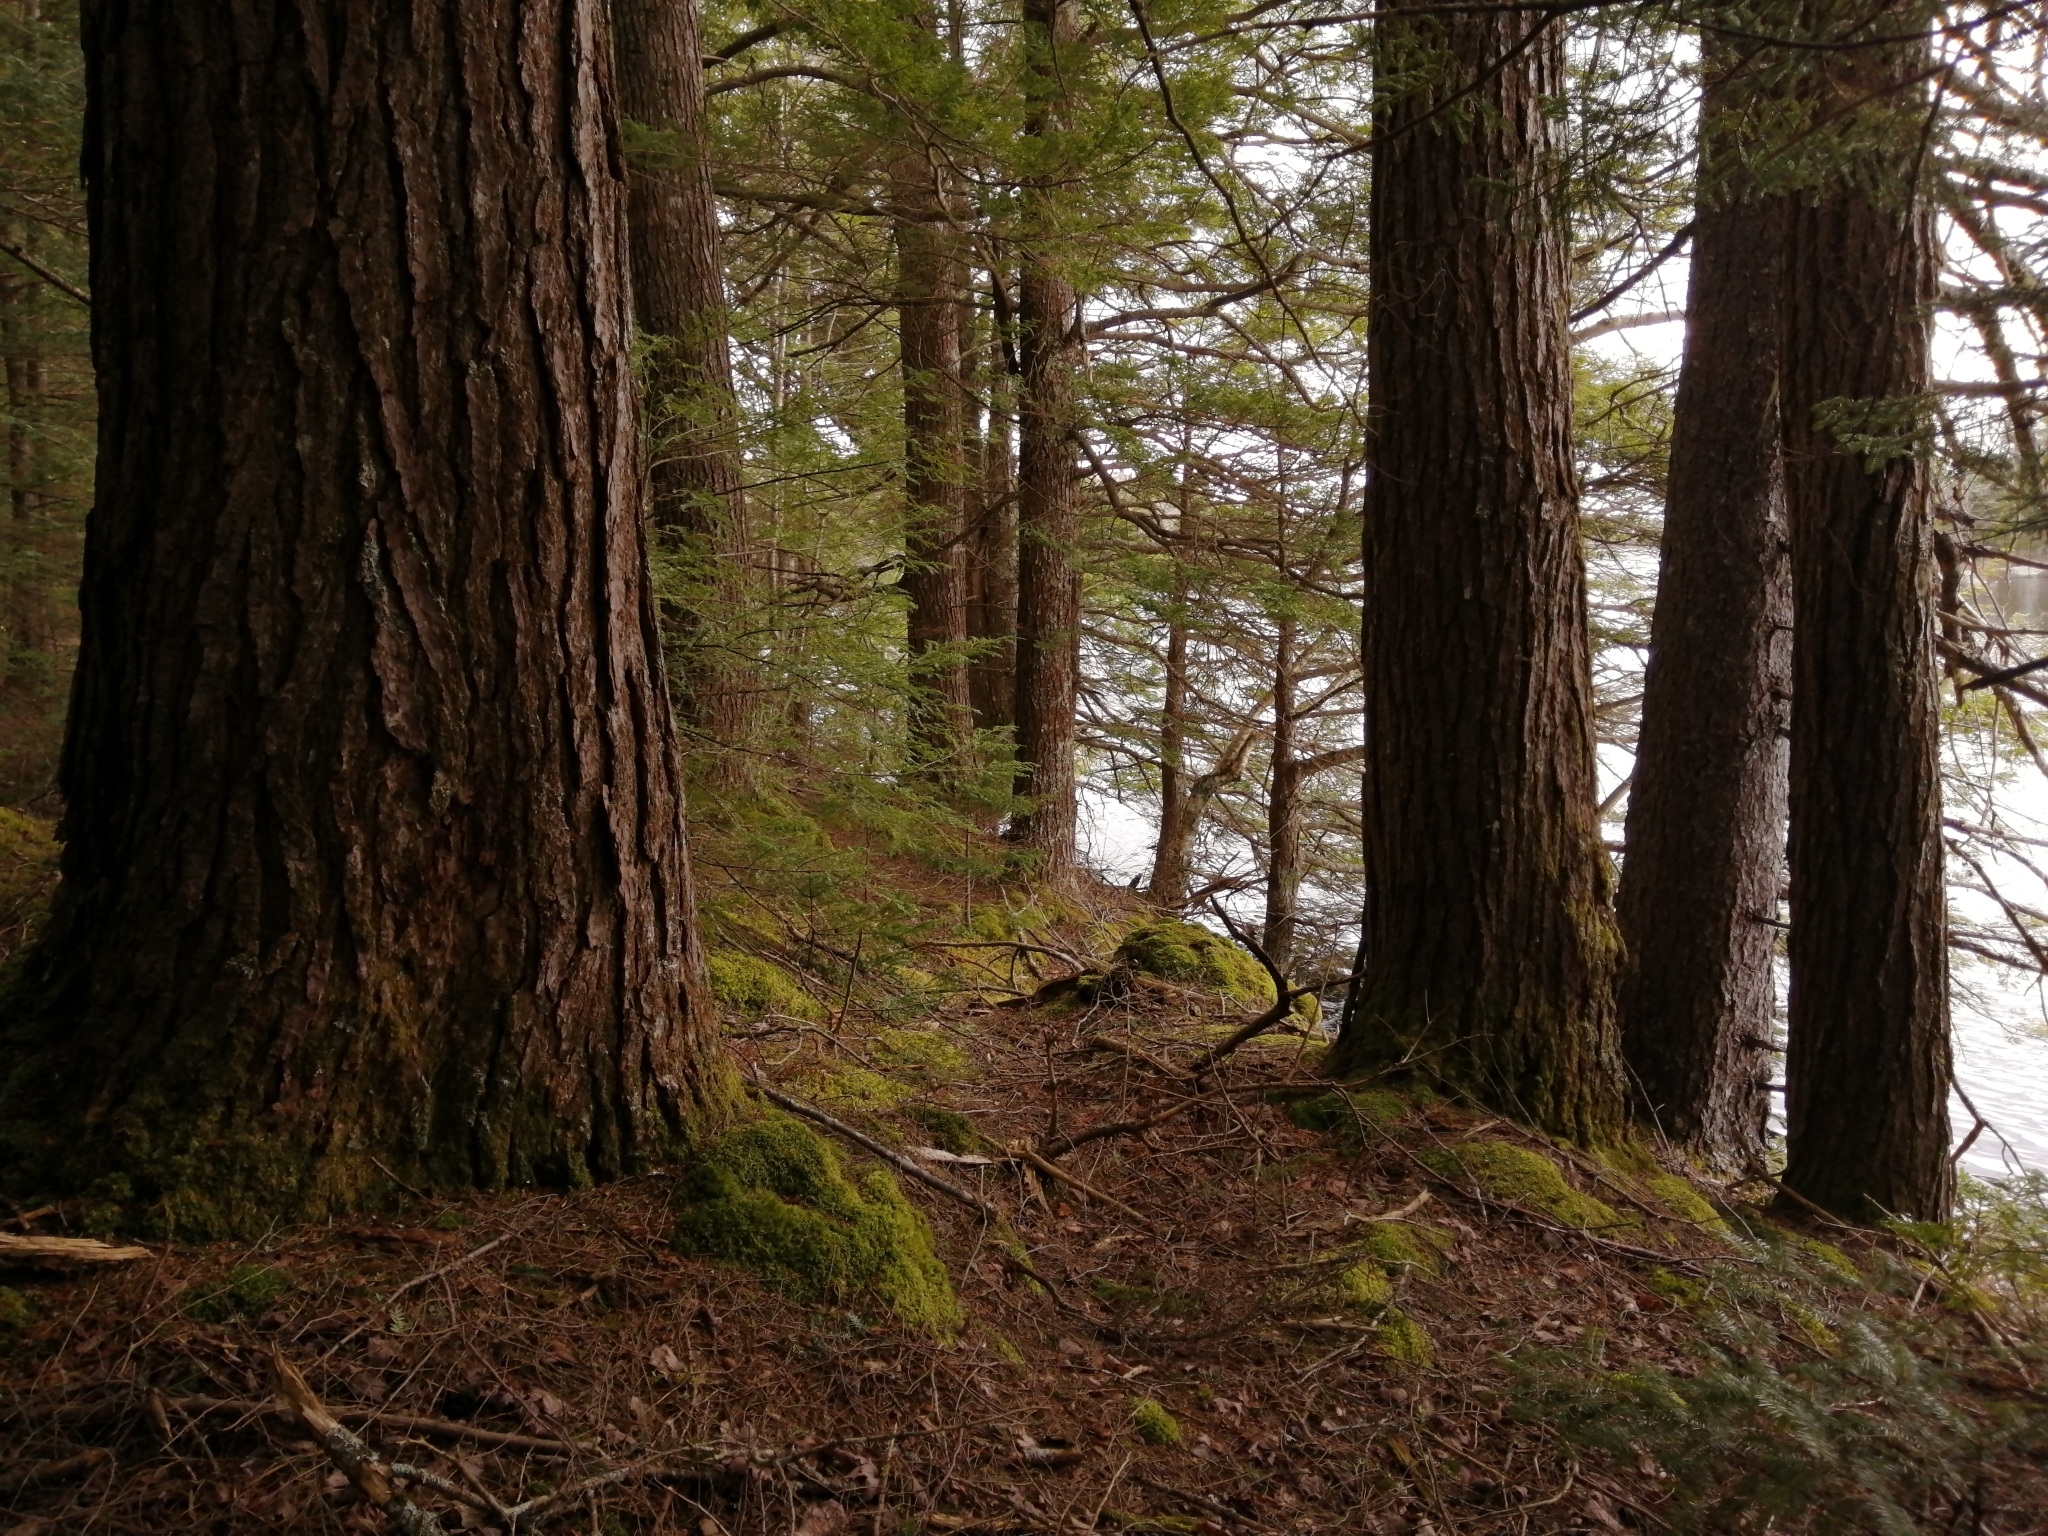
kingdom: Plantae
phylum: Tracheophyta
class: Pinopsida
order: Pinales
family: Pinaceae
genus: Tsuga
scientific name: Tsuga canadensis
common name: Eastern hemlock
